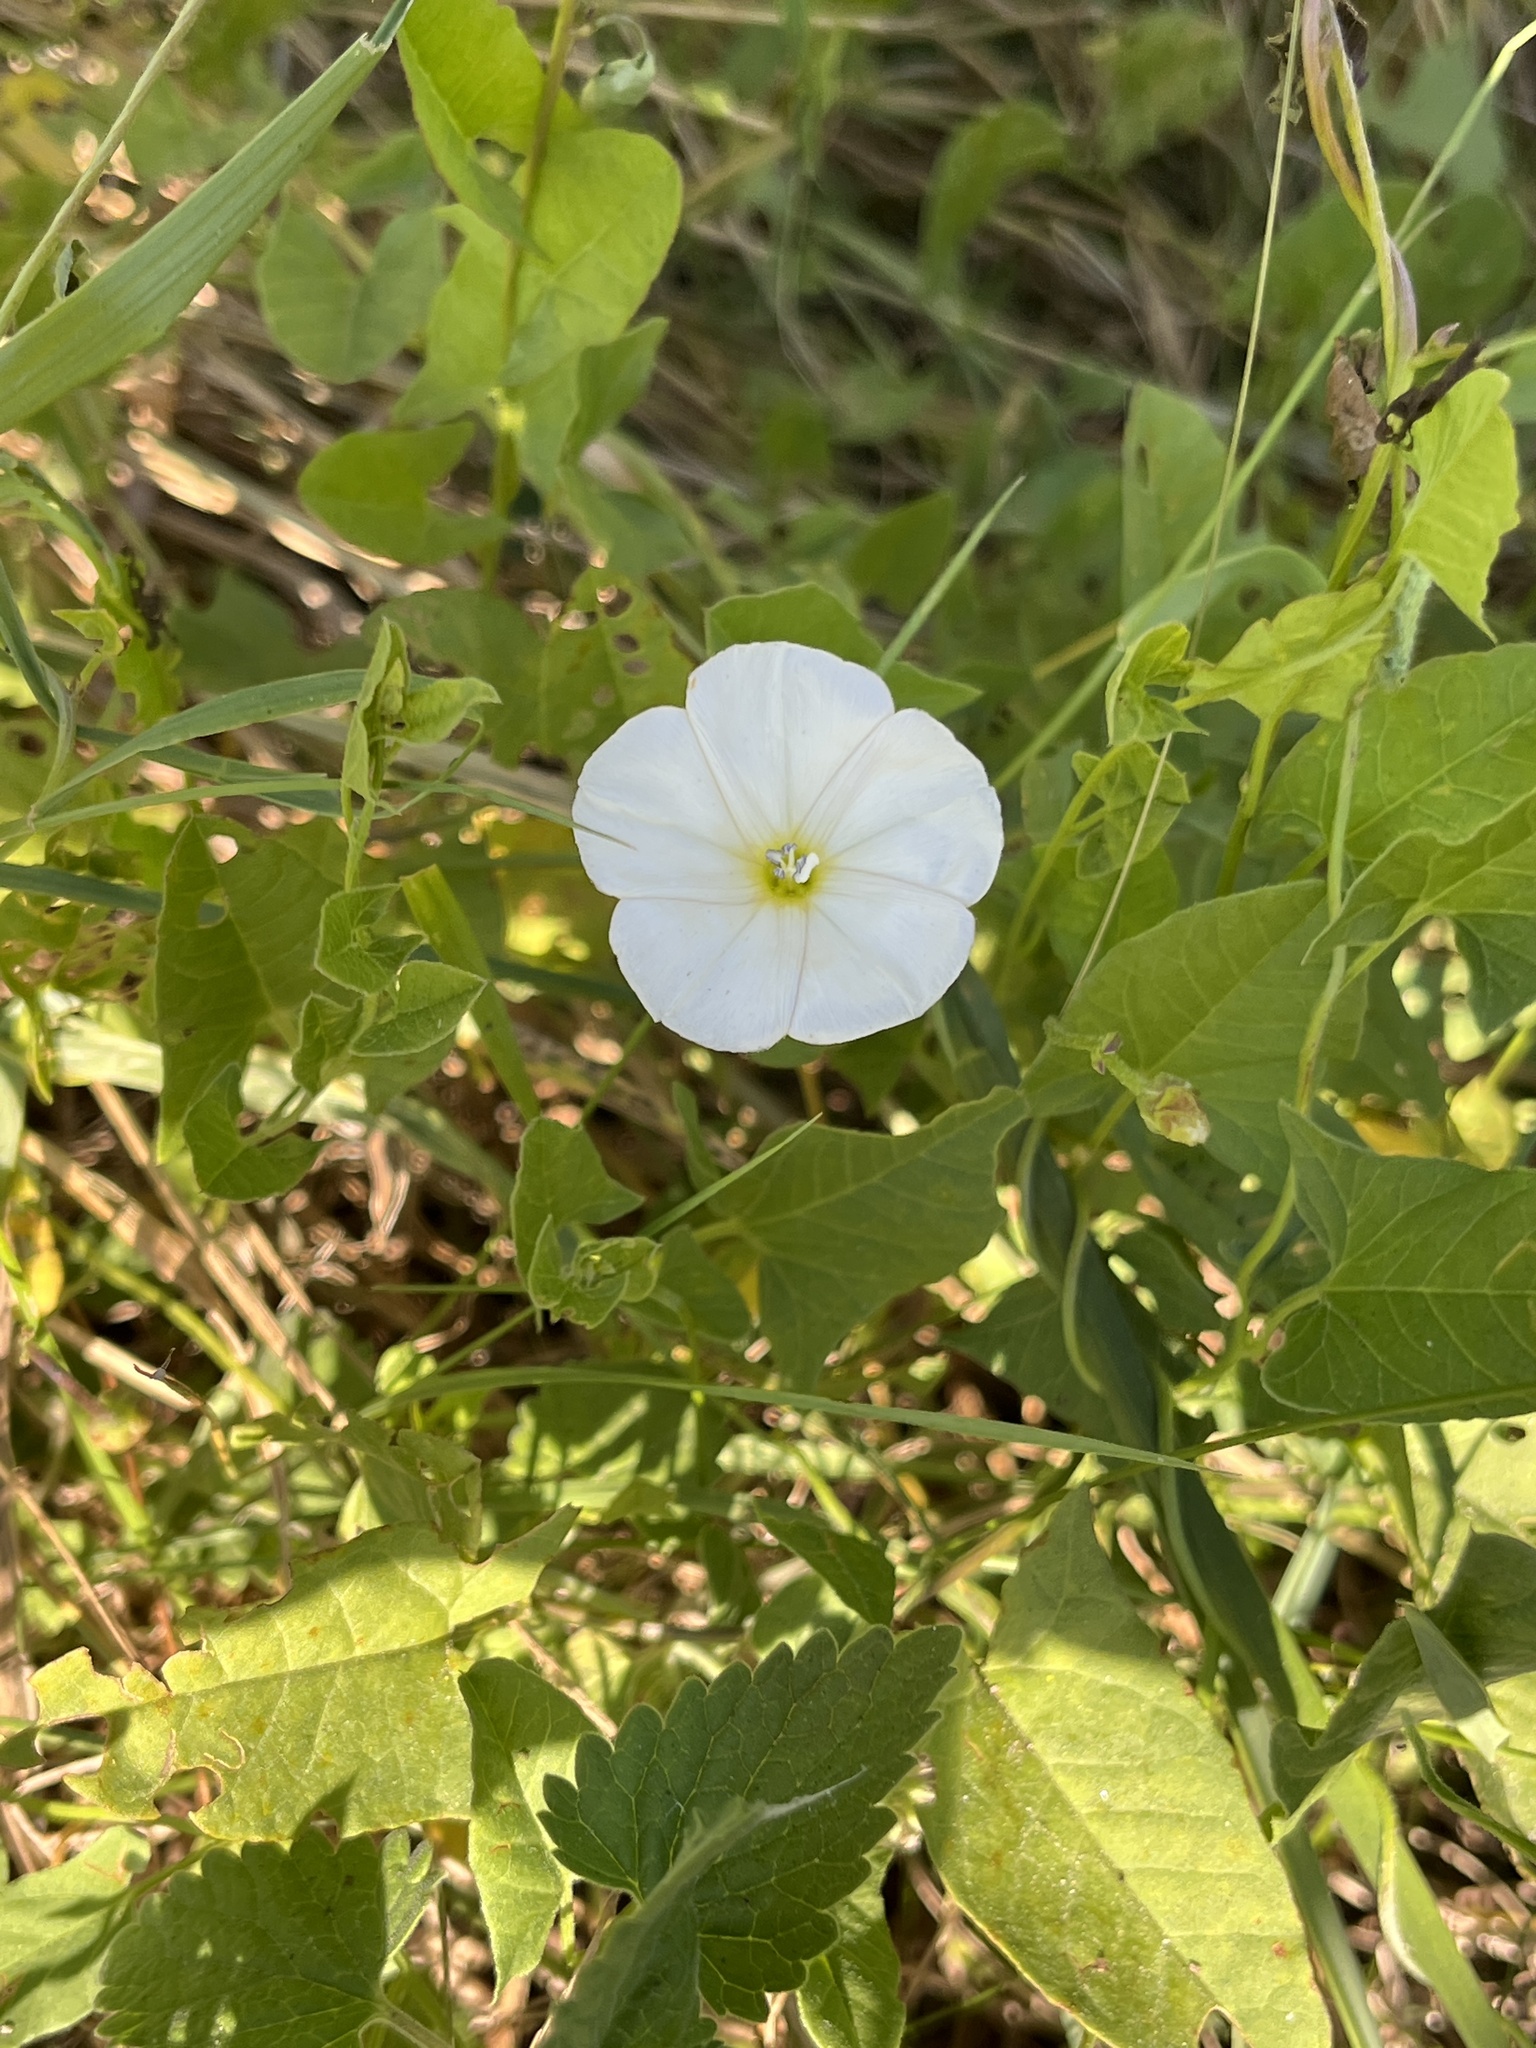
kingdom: Plantae
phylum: Tracheophyta
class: Magnoliopsida
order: Solanales
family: Convolvulaceae
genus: Convolvulus
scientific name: Convolvulus arvensis
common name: Field bindweed
